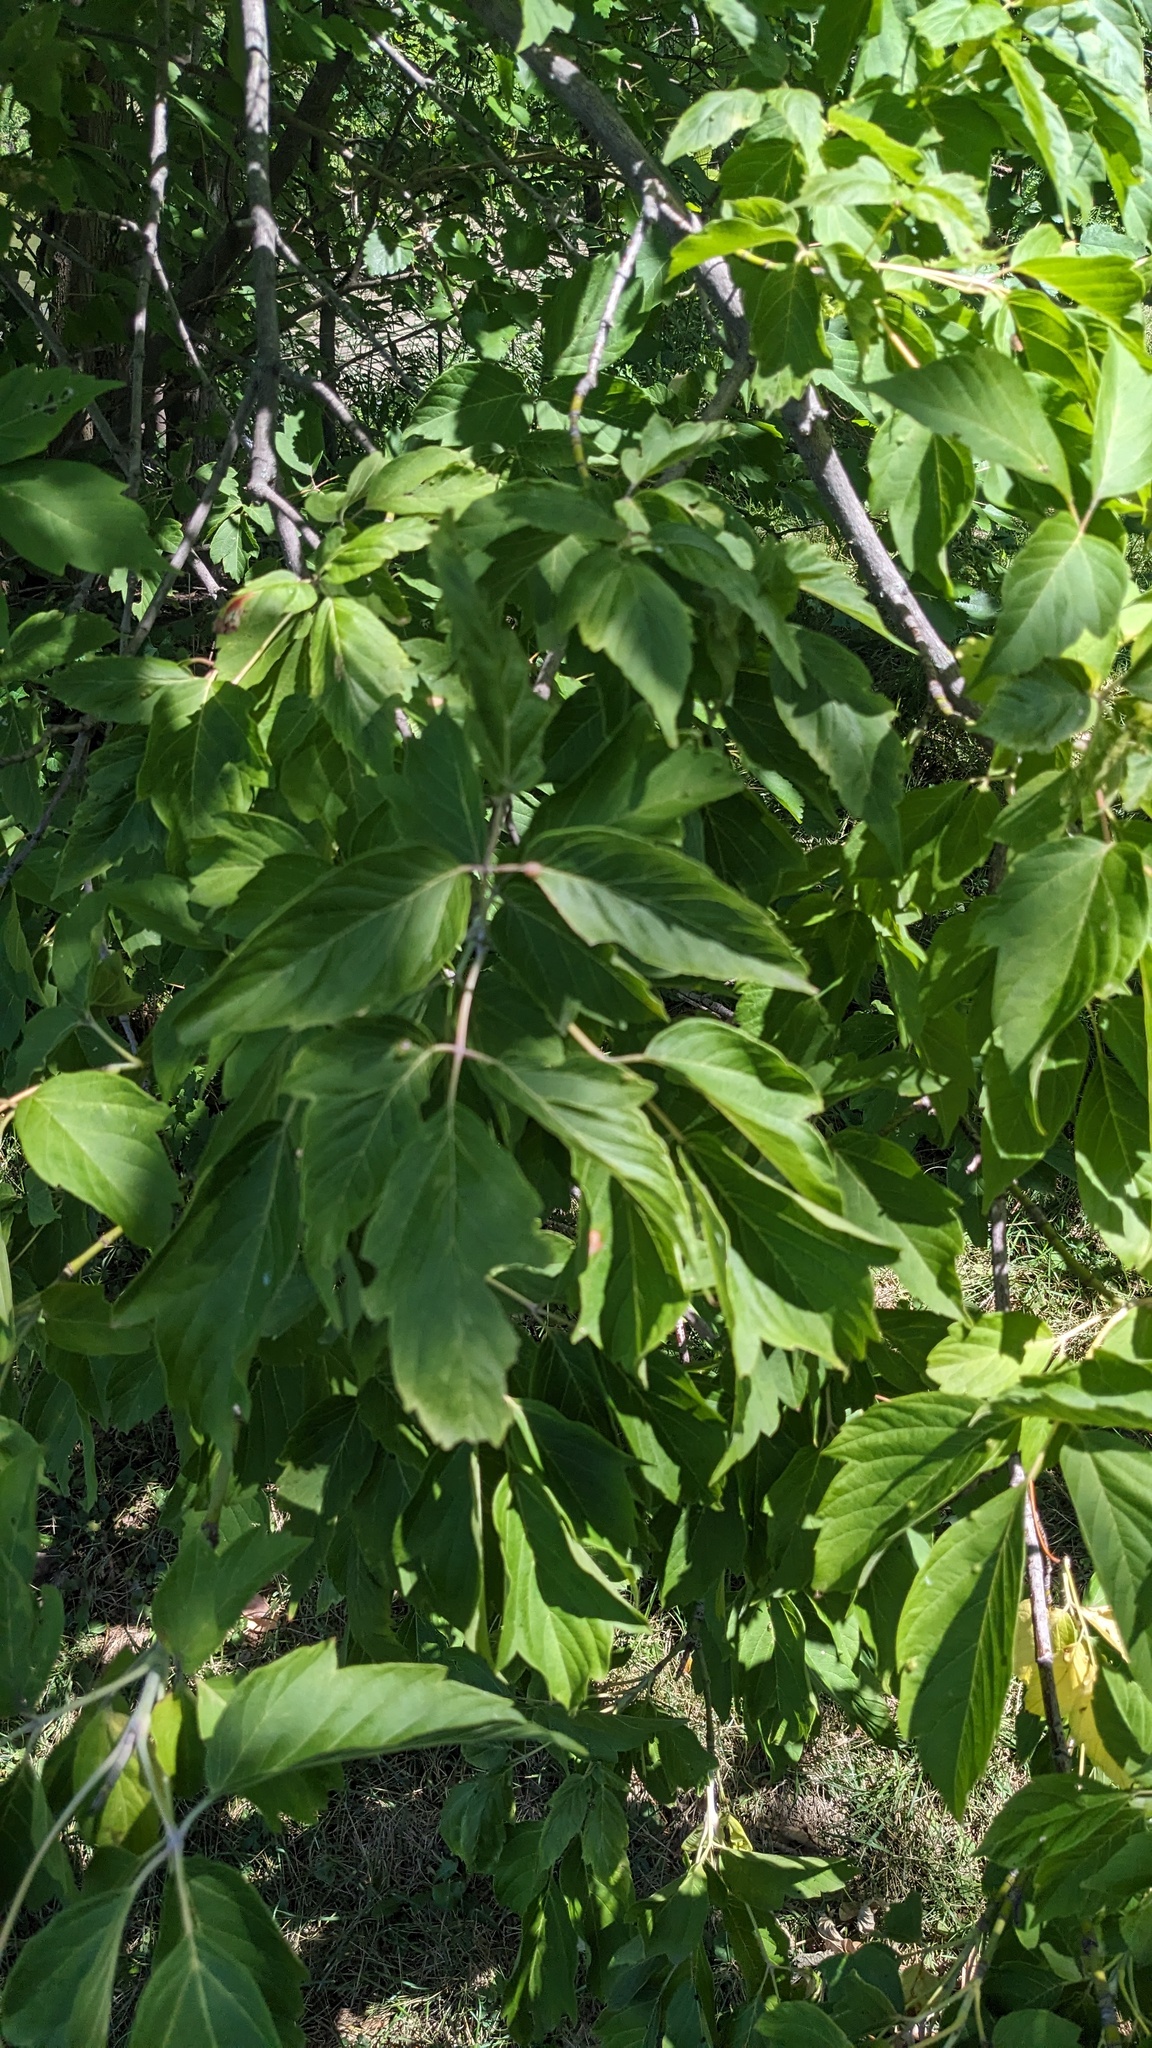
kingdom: Plantae
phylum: Tracheophyta
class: Magnoliopsida
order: Sapindales
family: Sapindaceae
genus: Acer
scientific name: Acer negundo
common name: Ashleaf maple
